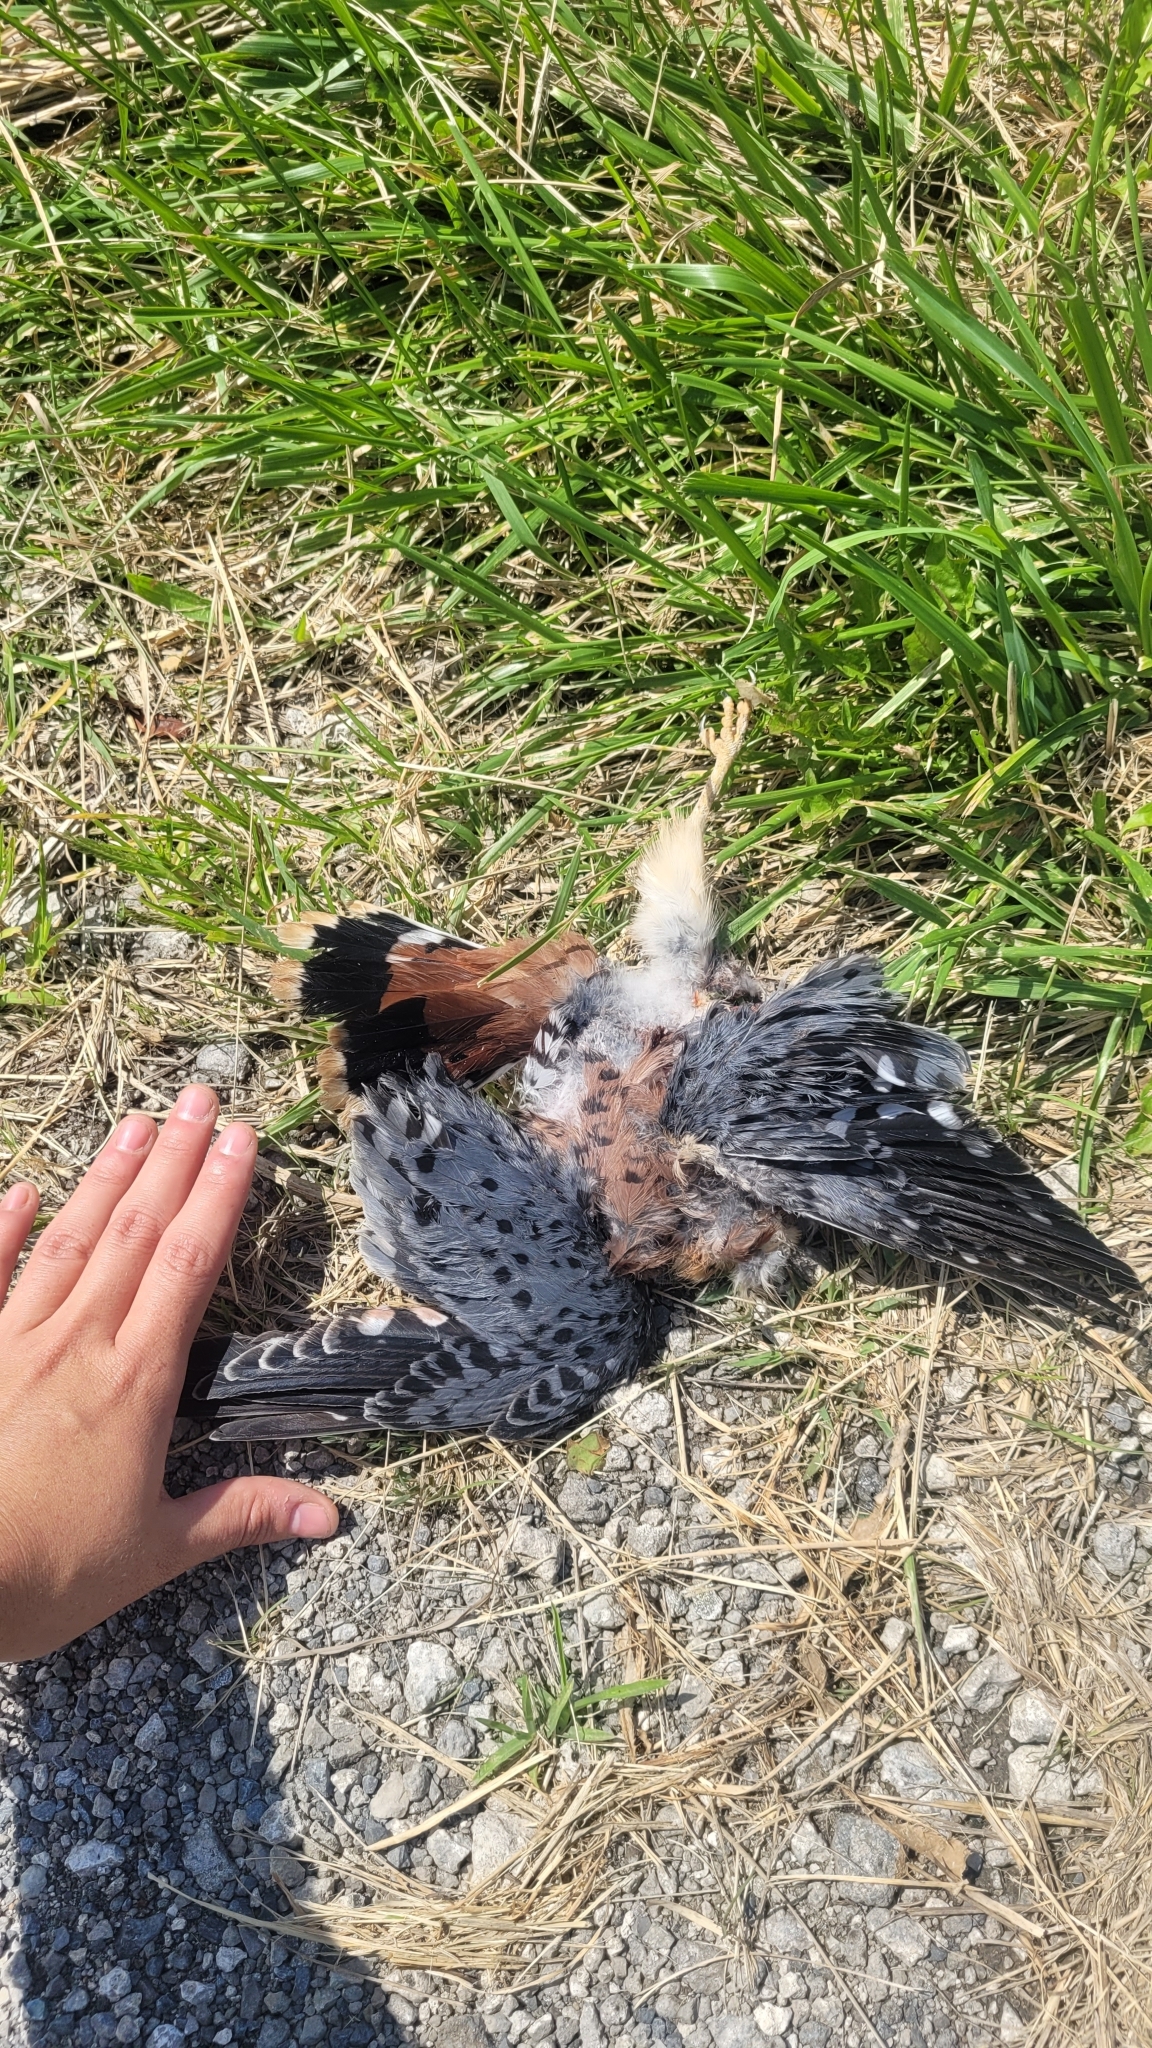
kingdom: Animalia
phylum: Chordata
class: Aves
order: Falconiformes
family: Falconidae
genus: Falco
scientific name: Falco sparverius
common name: American kestrel
